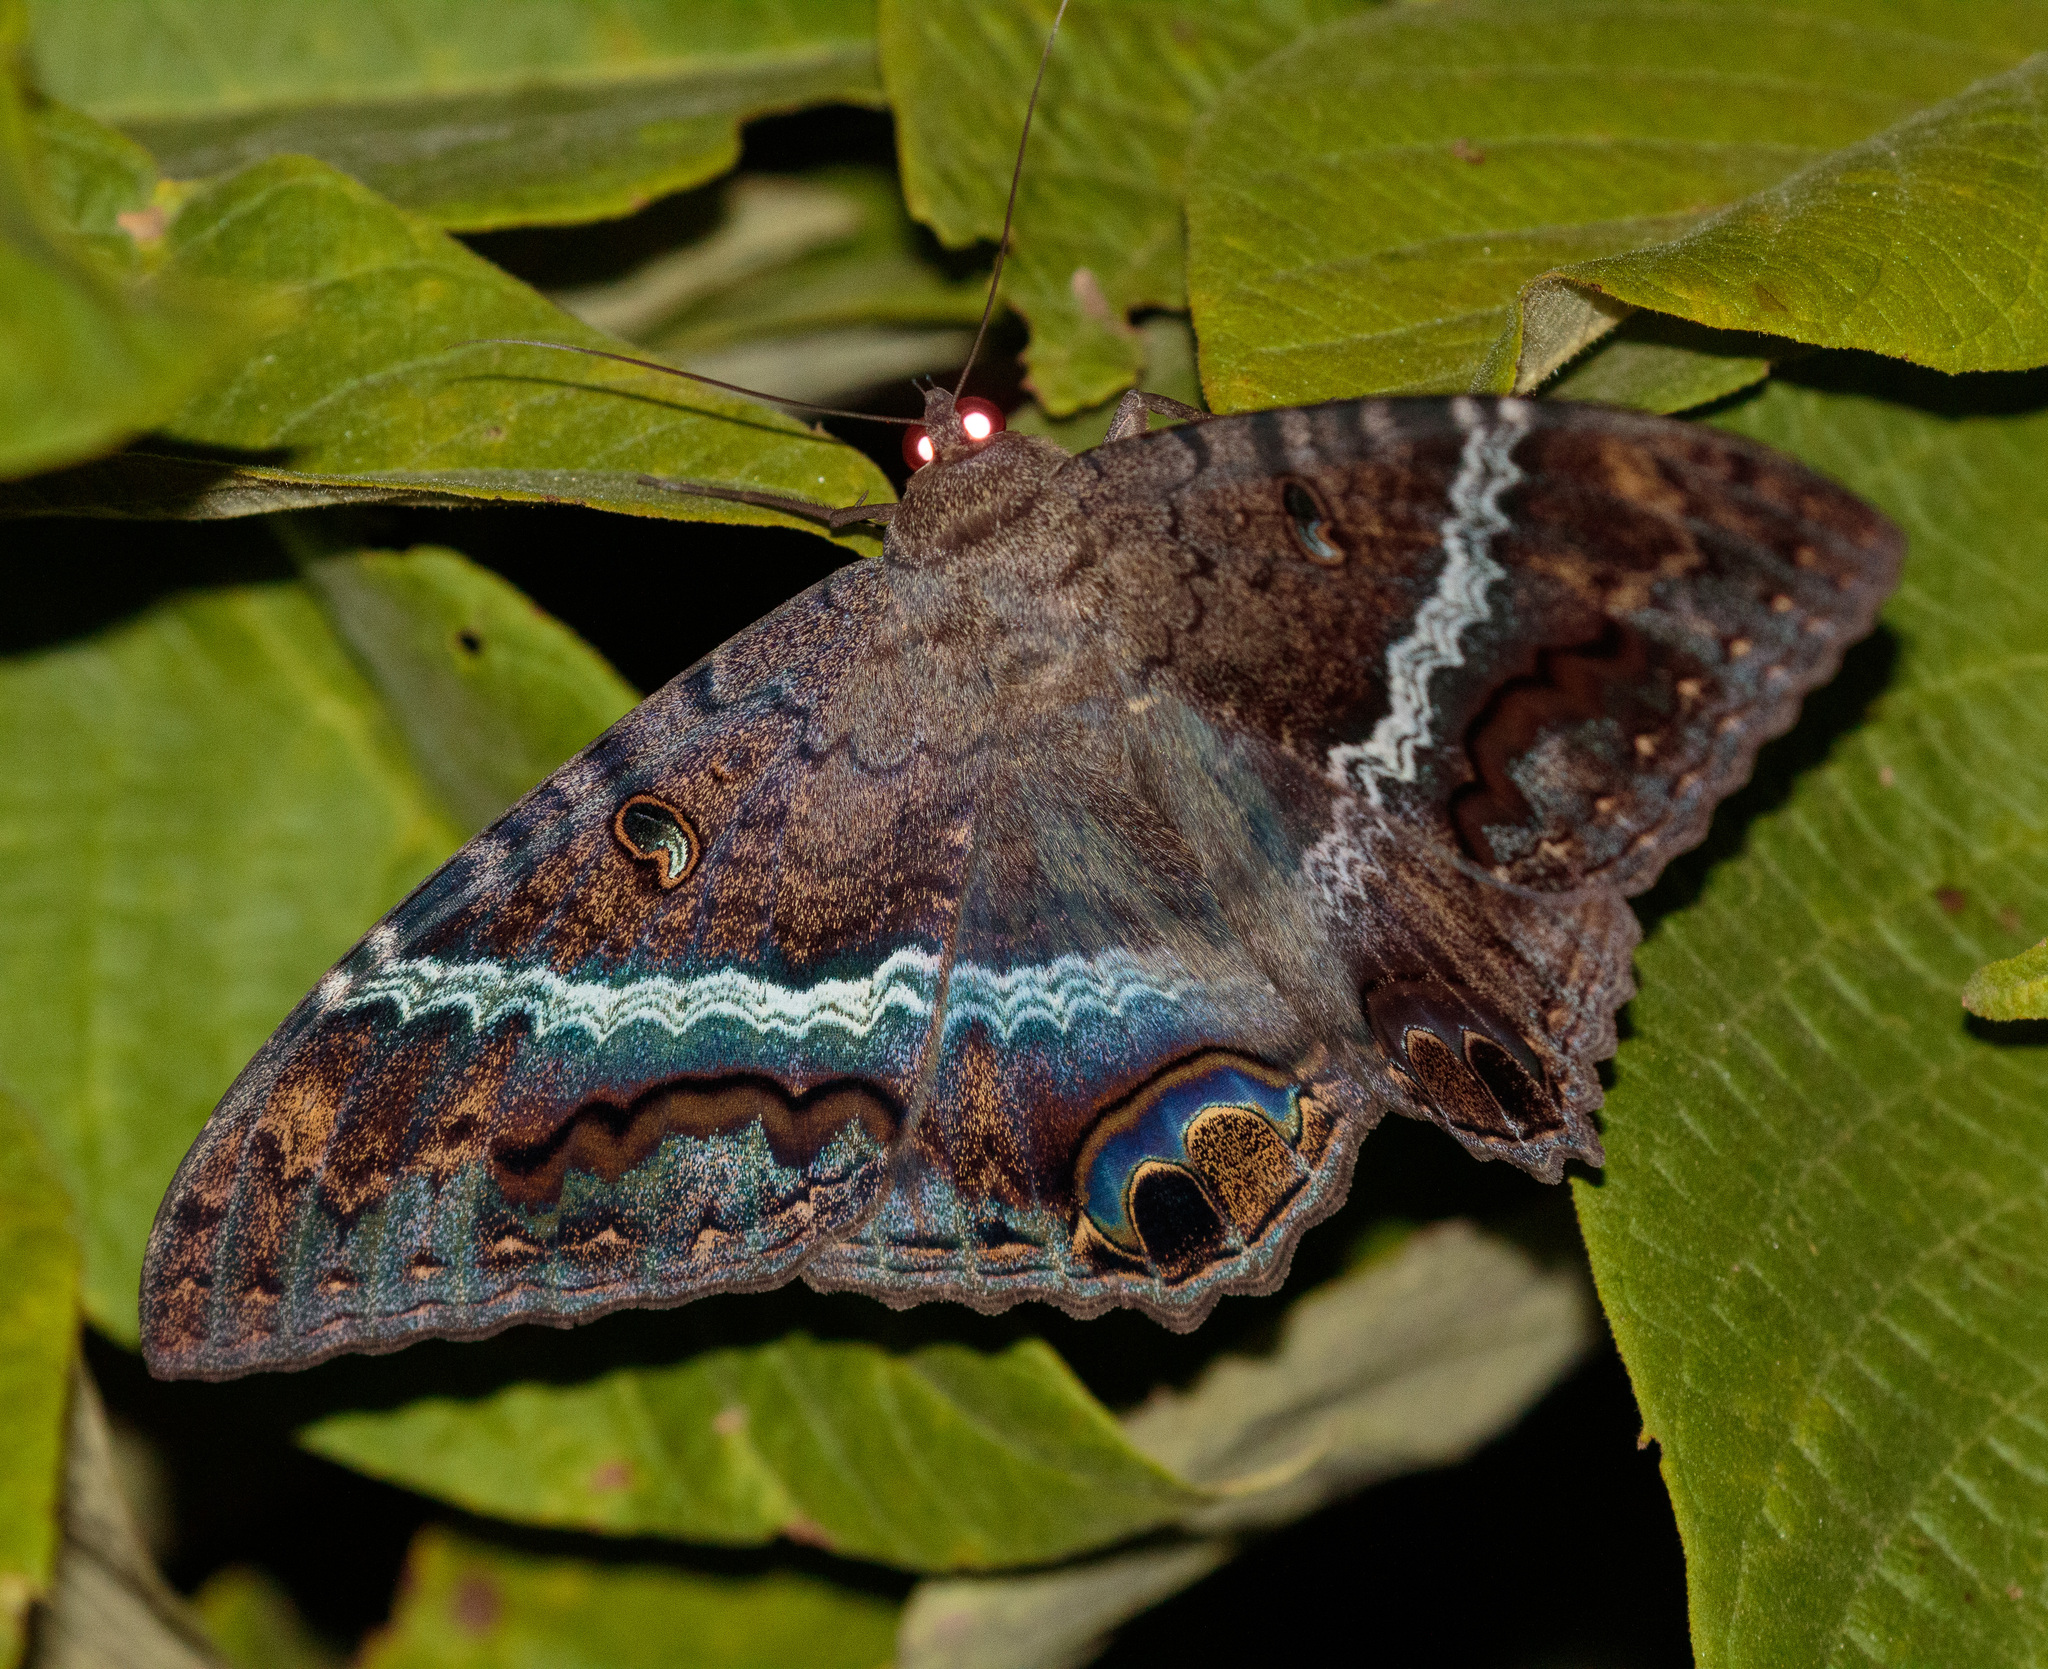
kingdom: Animalia
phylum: Arthropoda
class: Insecta
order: Lepidoptera
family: Erebidae
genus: Ascalapha
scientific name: Ascalapha odorata
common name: Black witch
